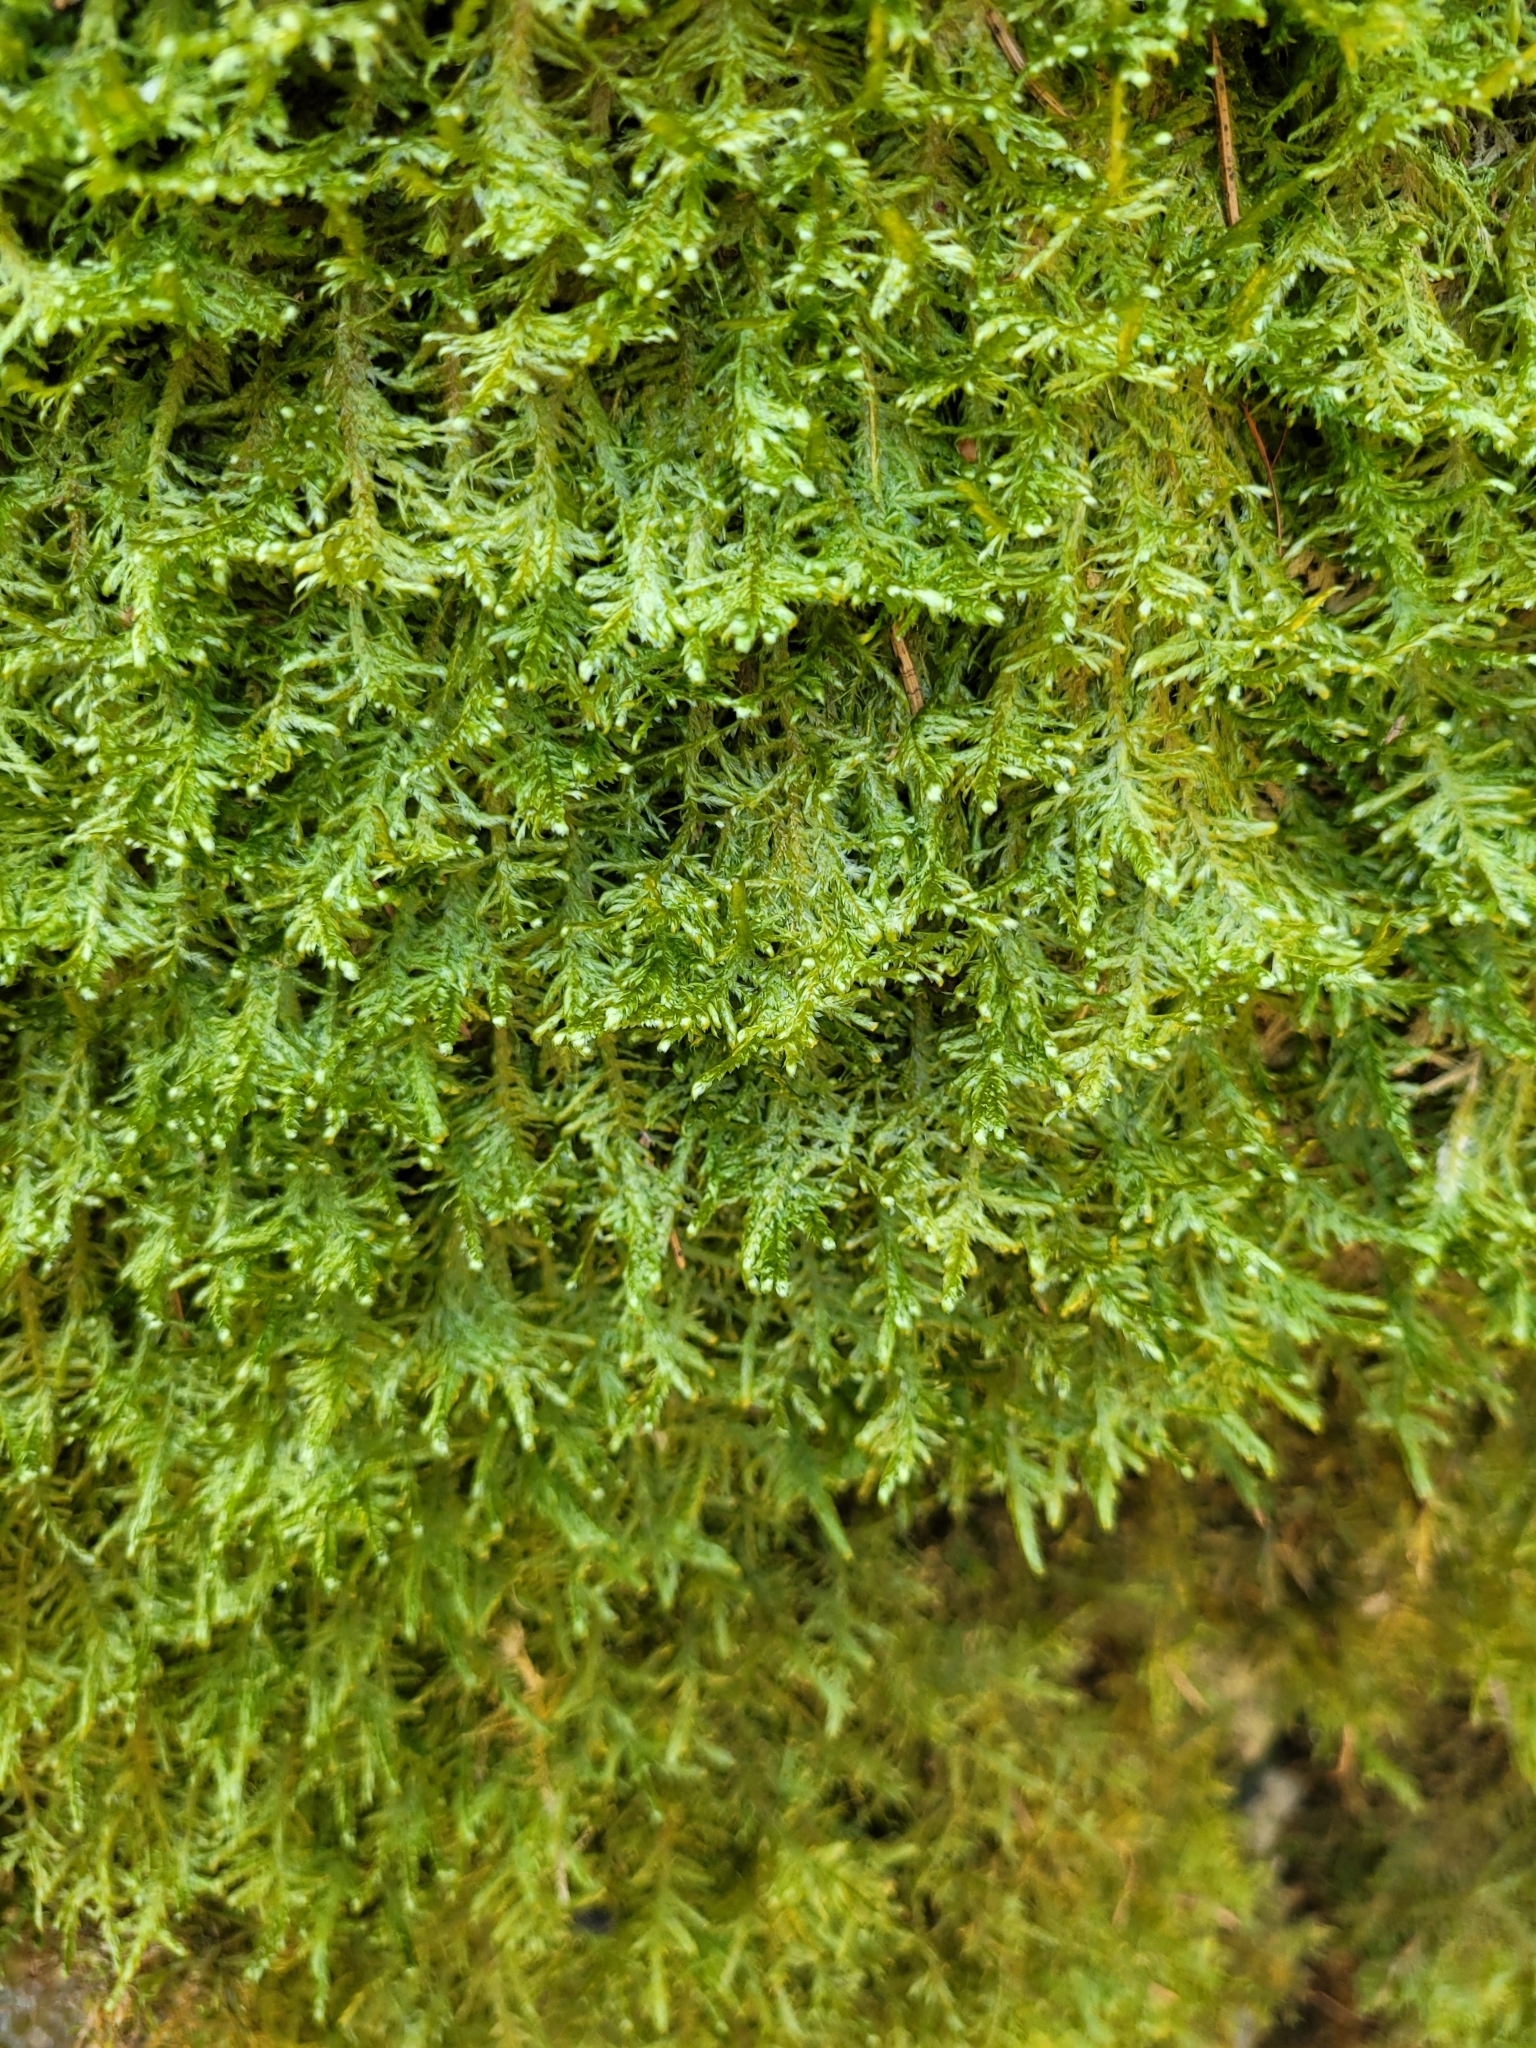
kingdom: Plantae
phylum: Bryophyta
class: Bryopsida
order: Hypnales
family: Neckeraceae
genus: Alleniella
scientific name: Alleniella complanata
